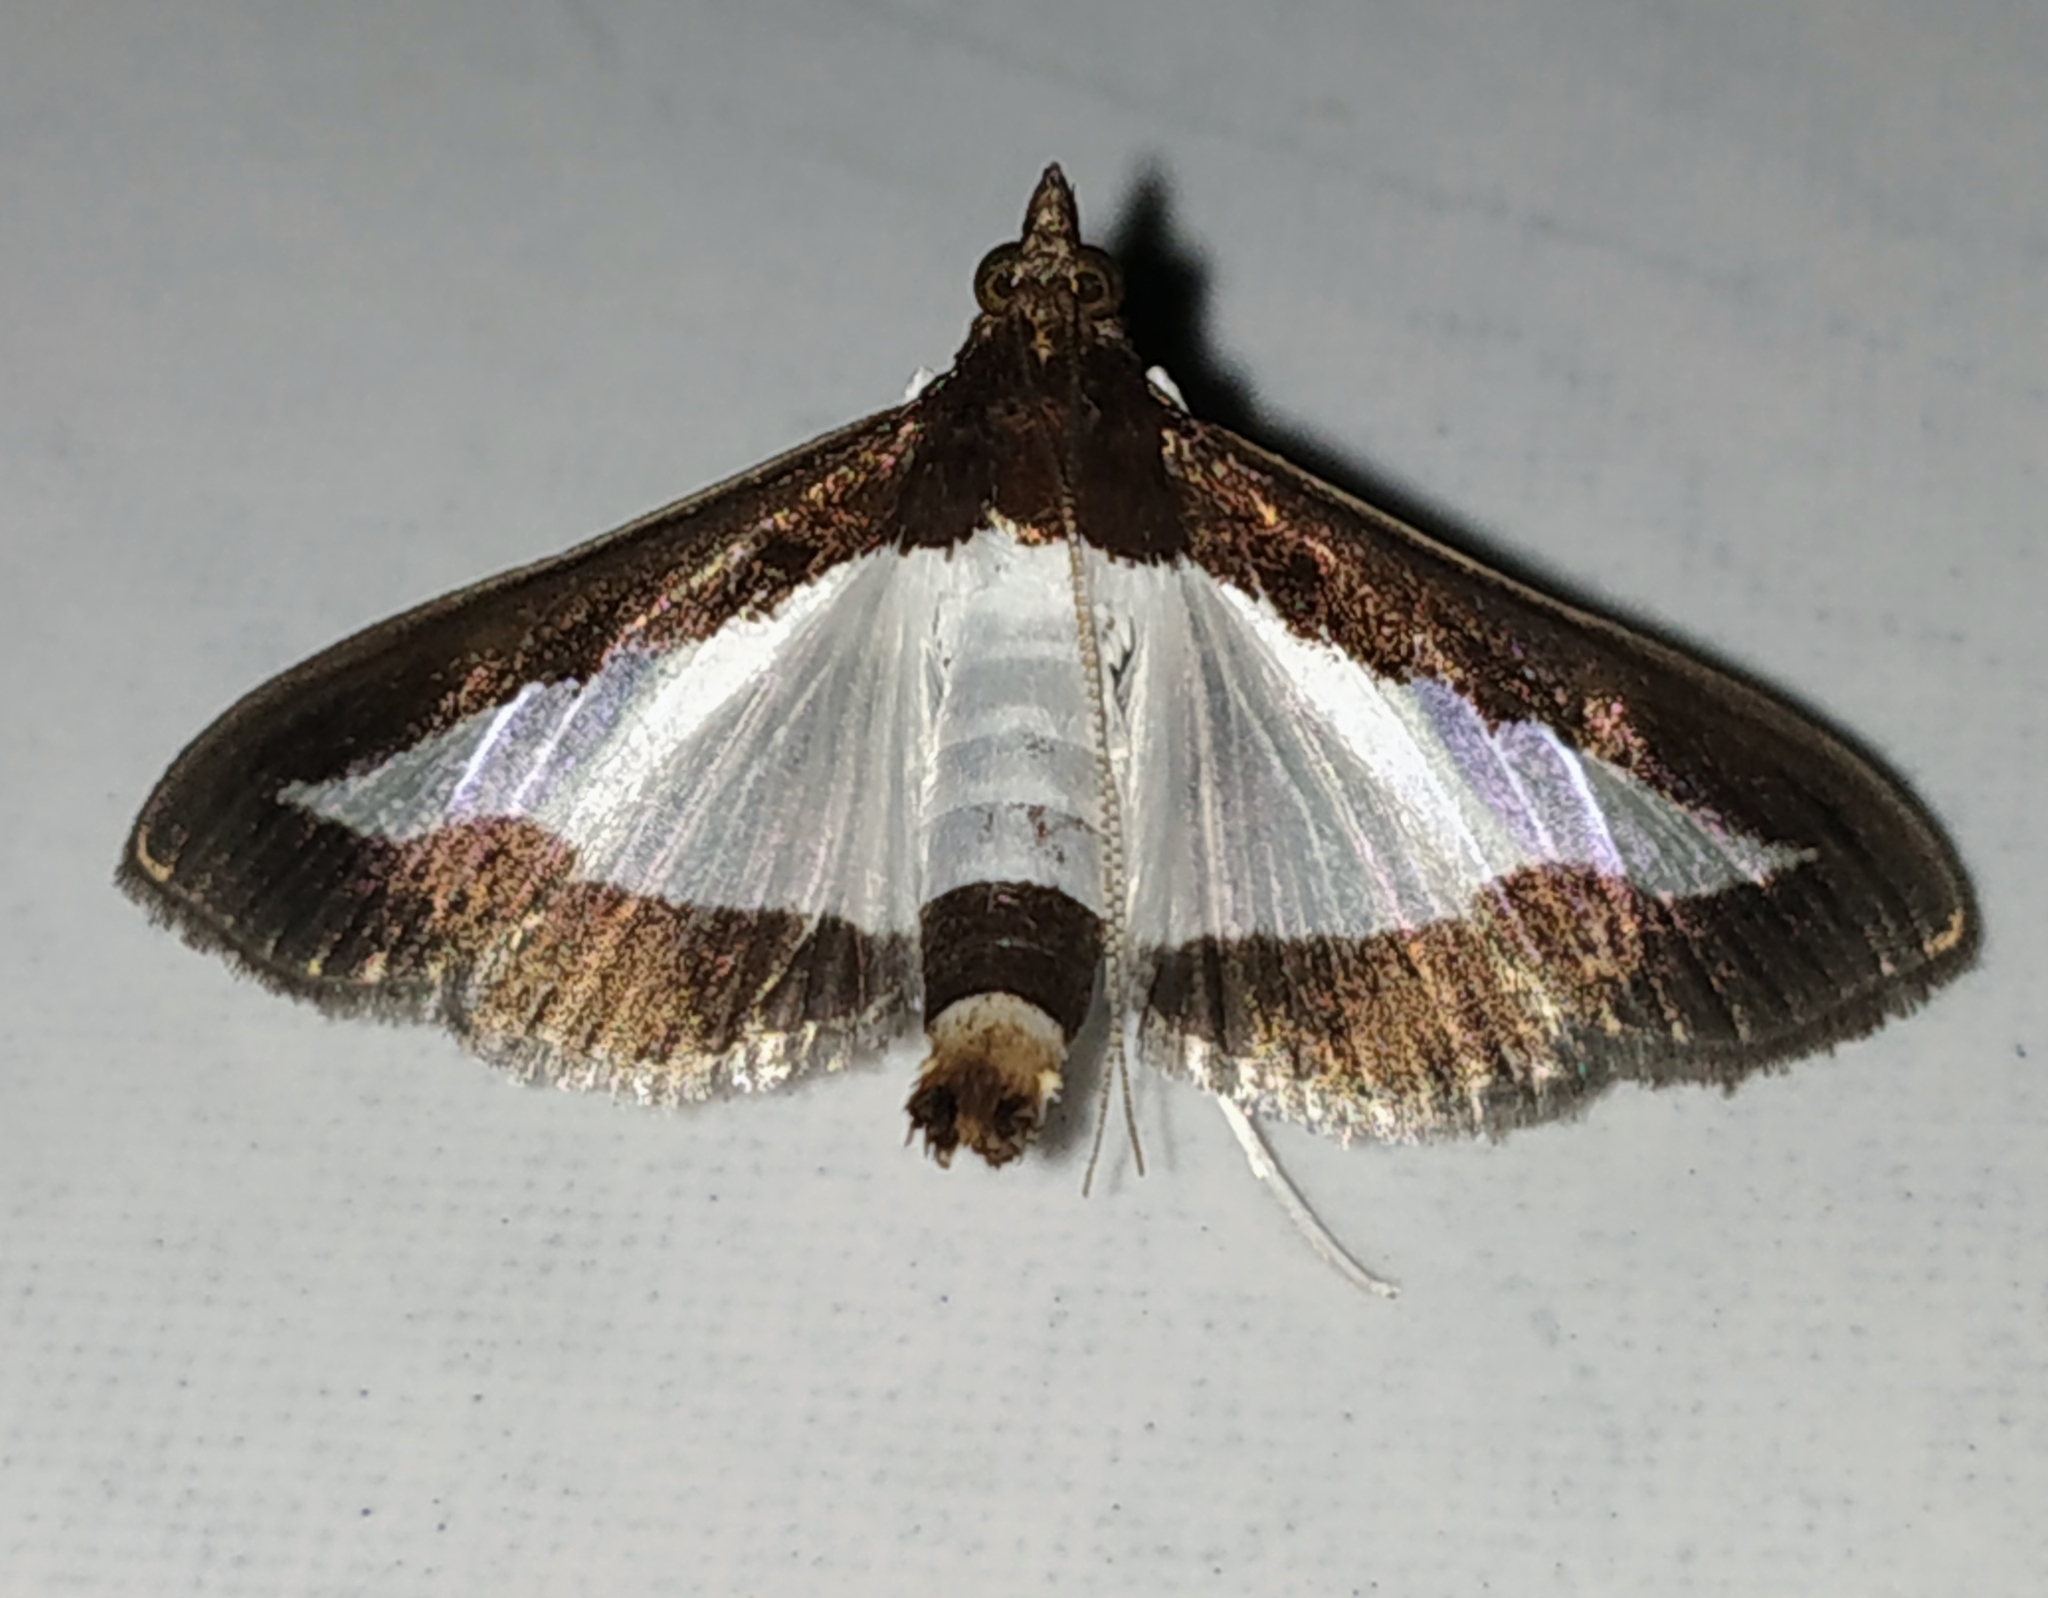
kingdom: Animalia
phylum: Arthropoda
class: Insecta
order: Lepidoptera
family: Crambidae
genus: Diaphania
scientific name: Diaphania indica
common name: Cucumber moth
